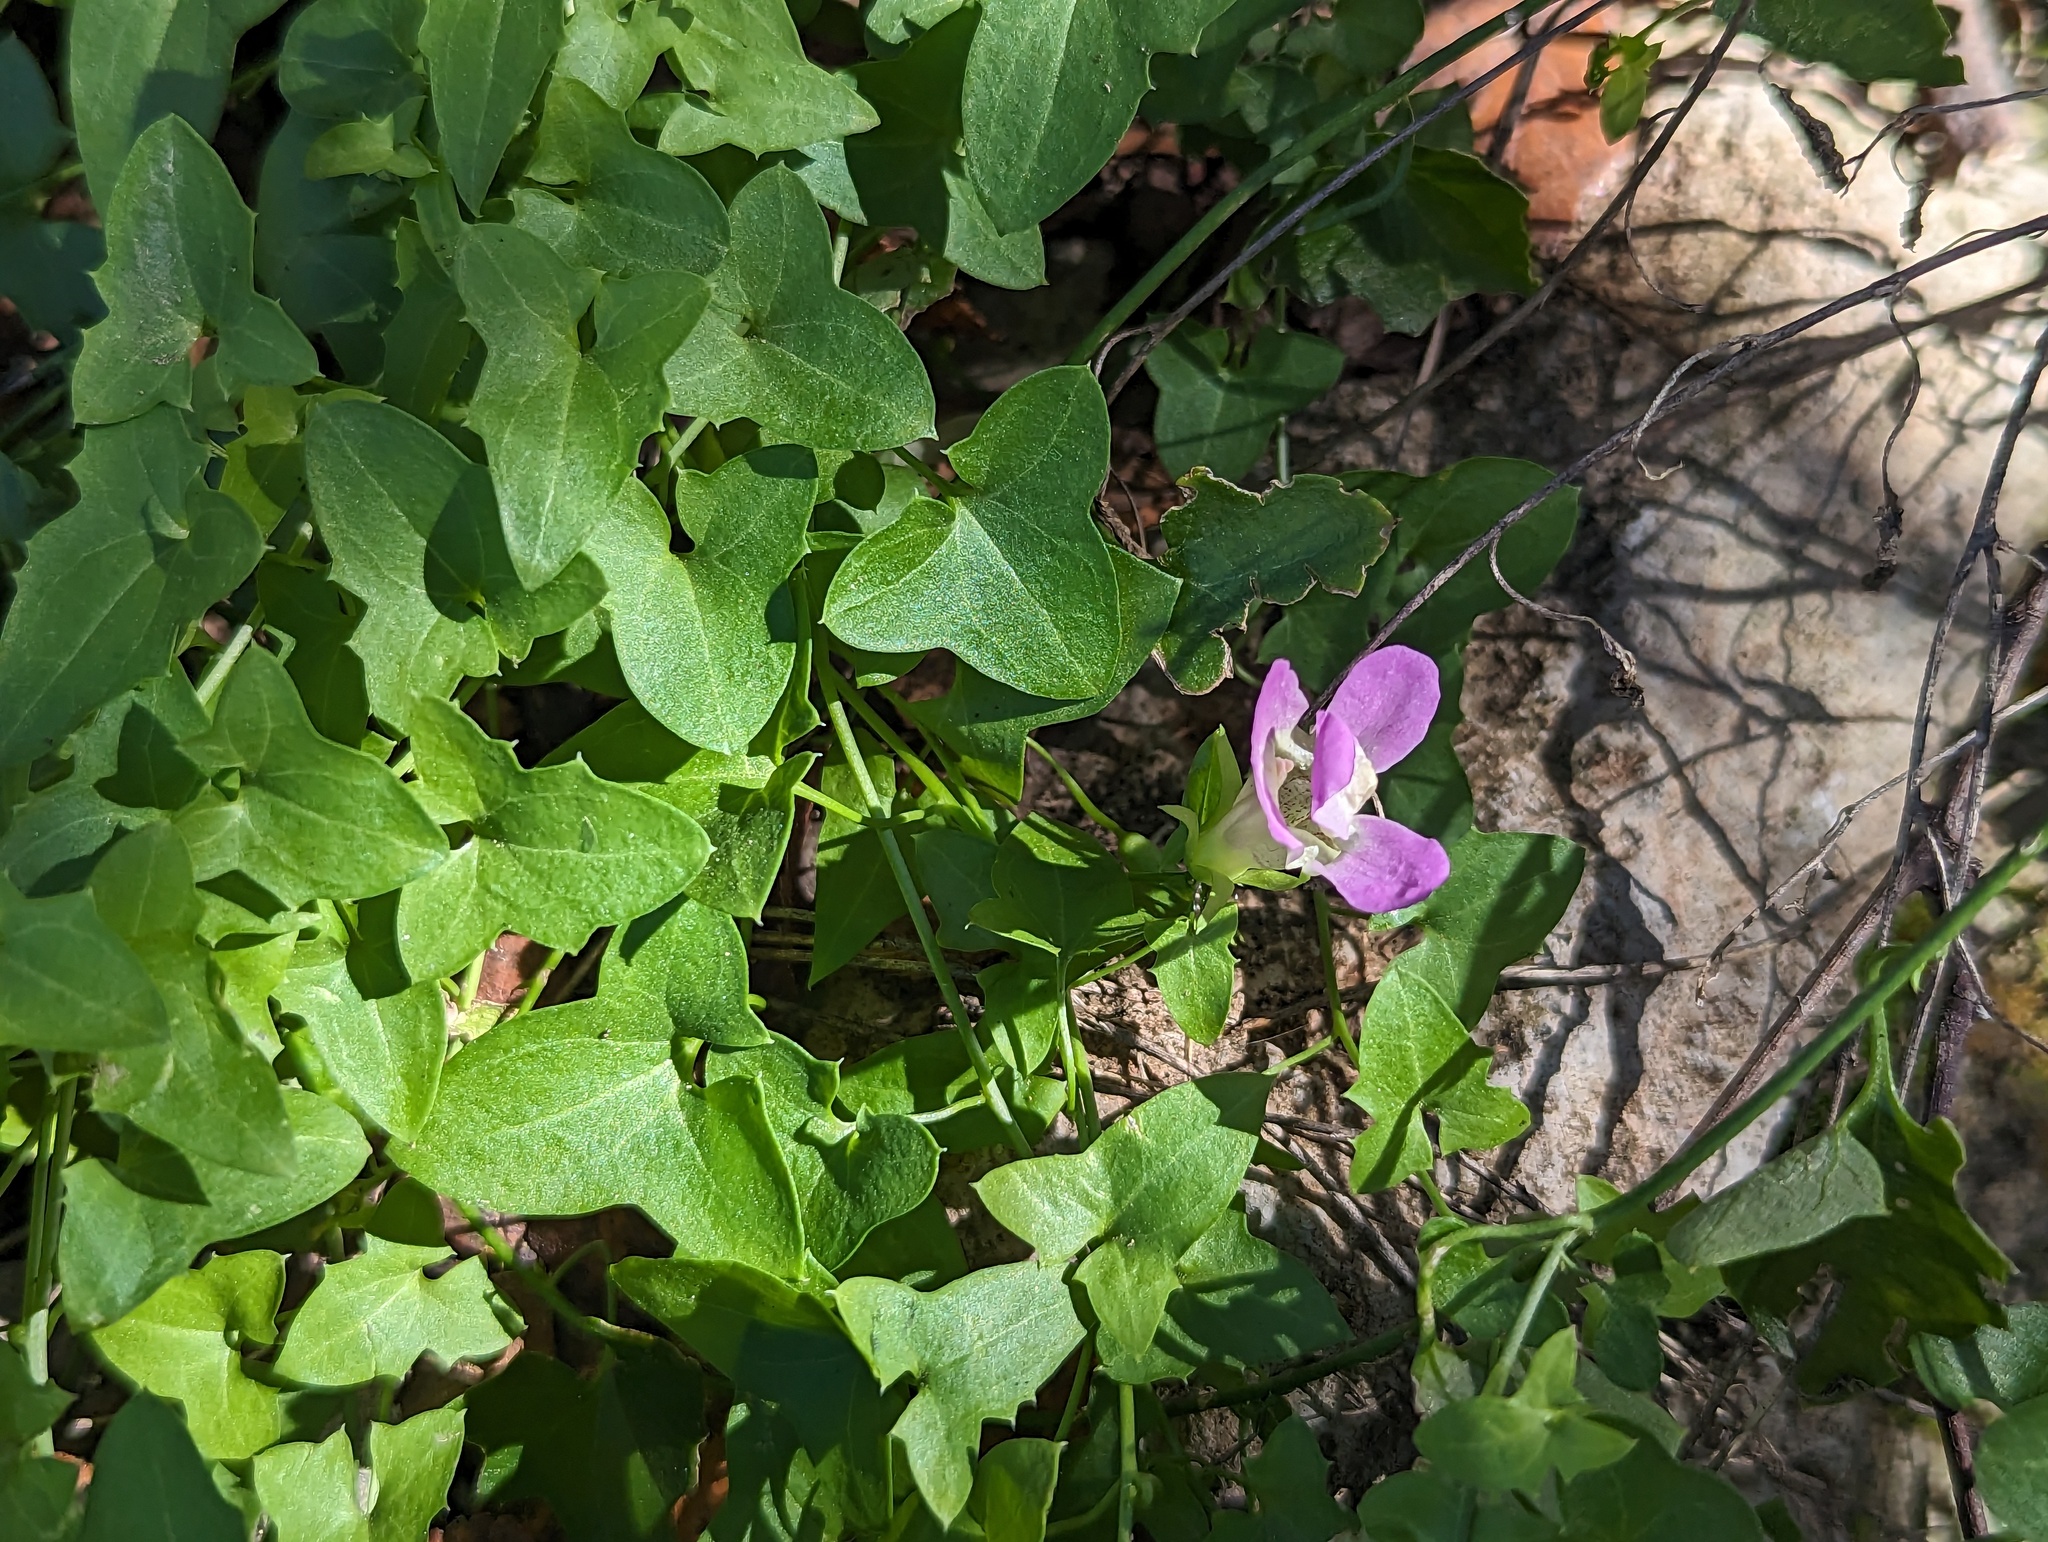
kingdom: Plantae
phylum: Tracheophyta
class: Magnoliopsida
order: Lamiales
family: Plantaginaceae
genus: Maurandella
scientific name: Maurandella antirrhiniflora
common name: Violet twining-snapdragon
